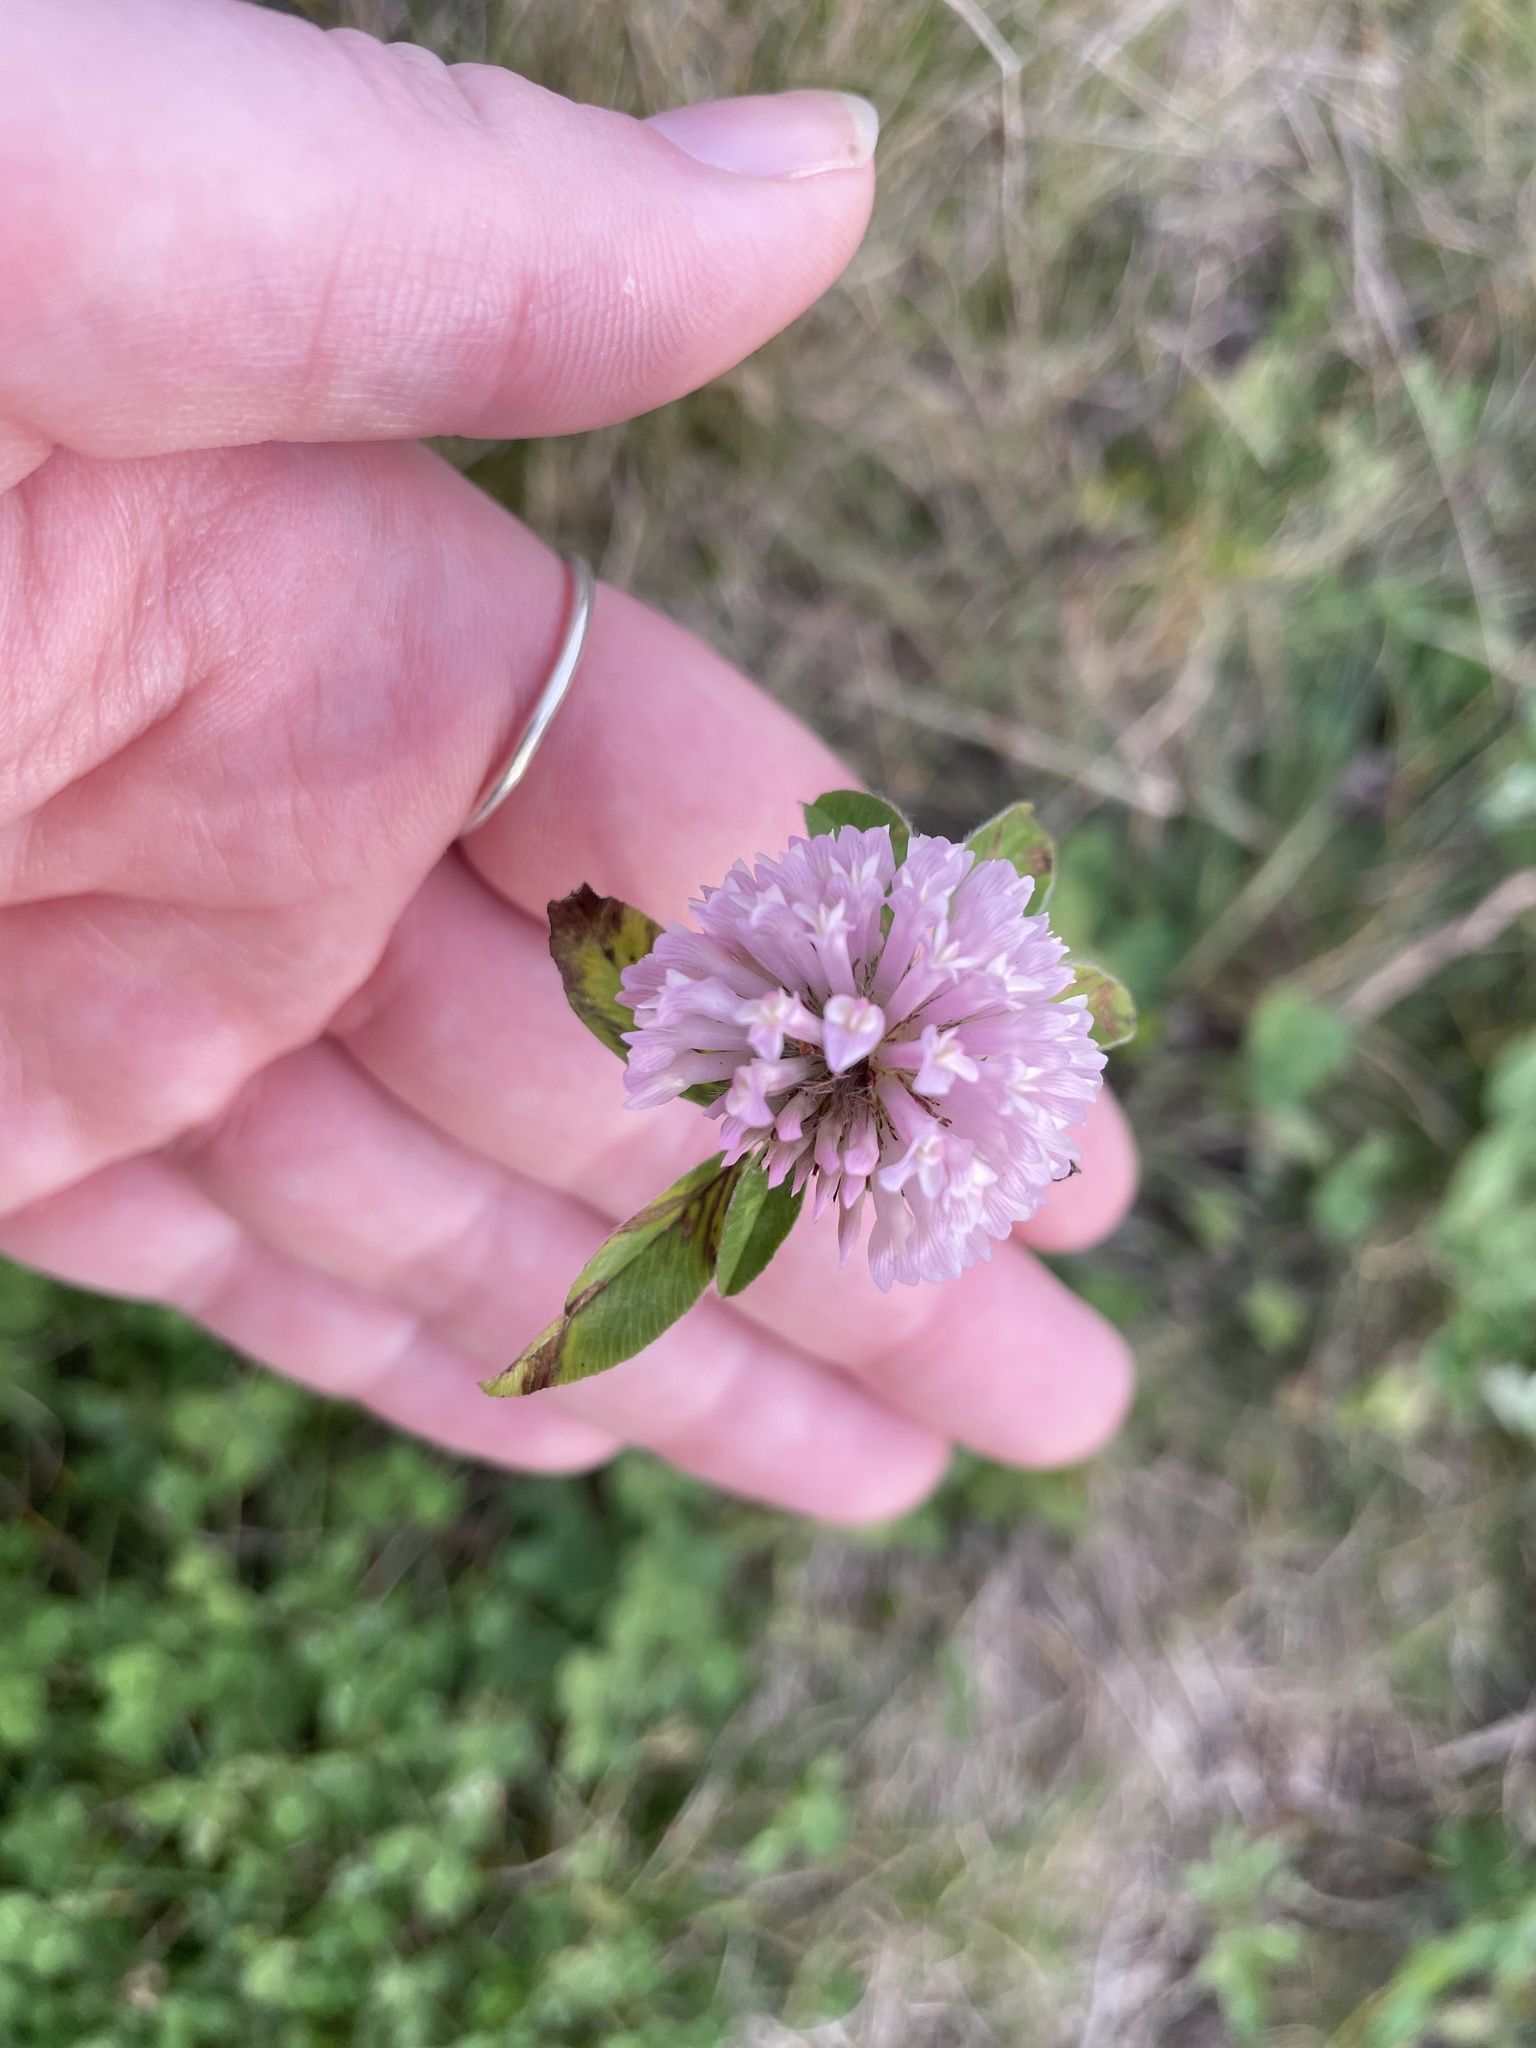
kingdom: Plantae
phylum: Tracheophyta
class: Magnoliopsida
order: Fabales
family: Fabaceae
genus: Trifolium
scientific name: Trifolium pratense
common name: Red clover
